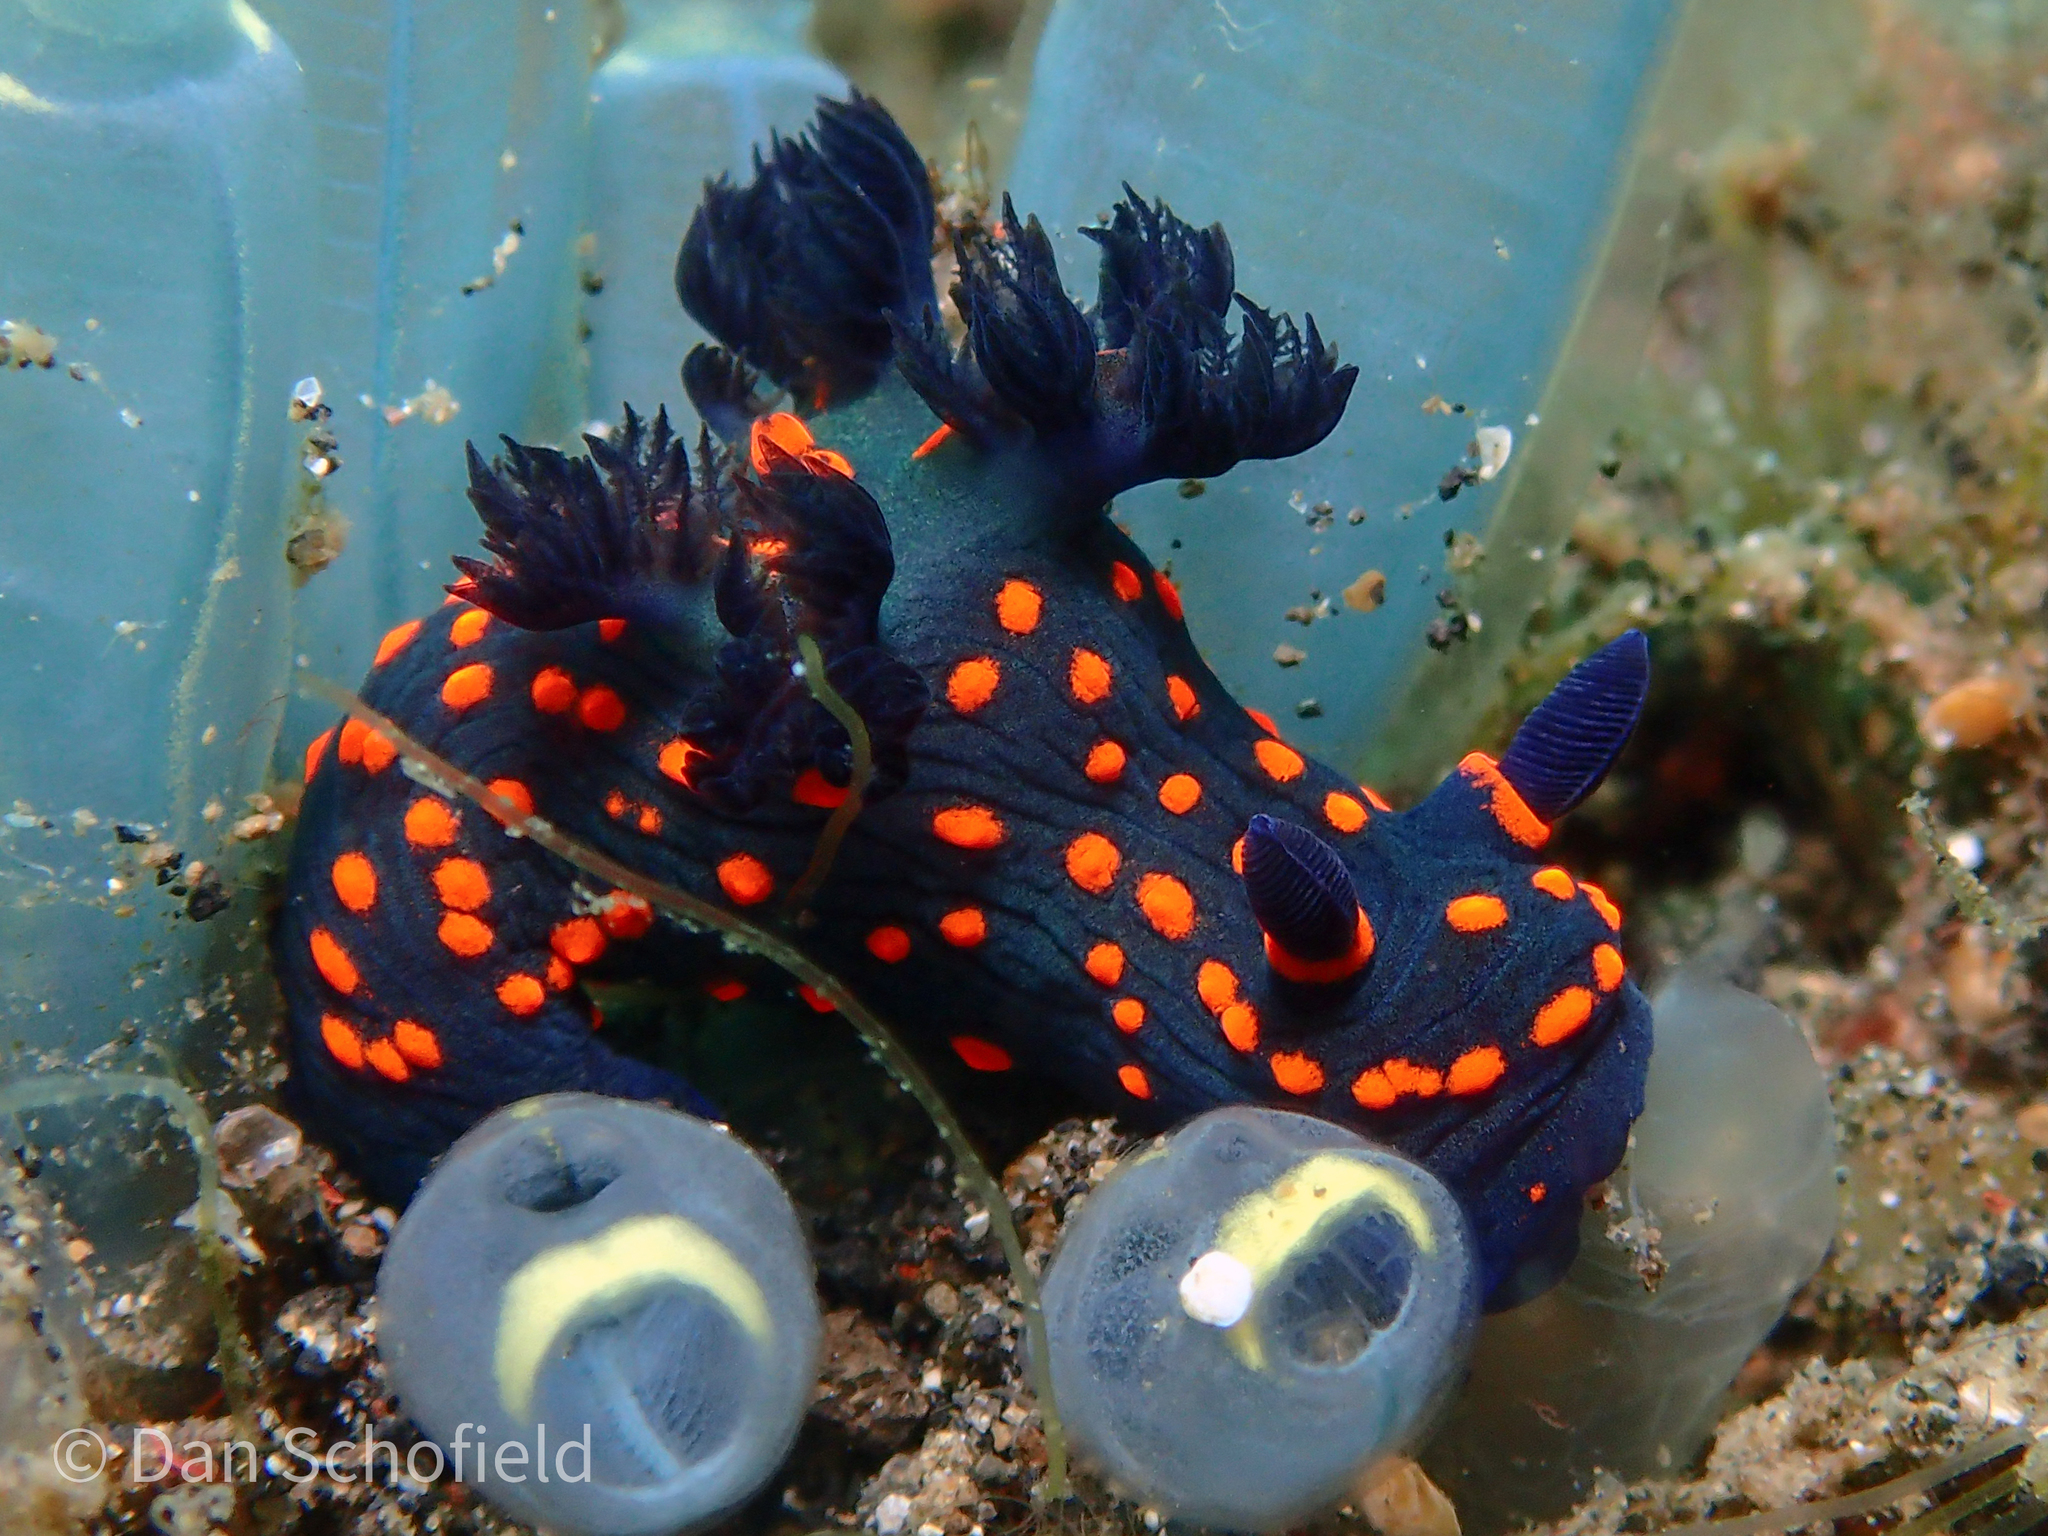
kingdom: Animalia
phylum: Mollusca
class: Gastropoda
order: Nudibranchia
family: Polyceridae
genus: Nembrotha
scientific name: Nembrotha milleri
